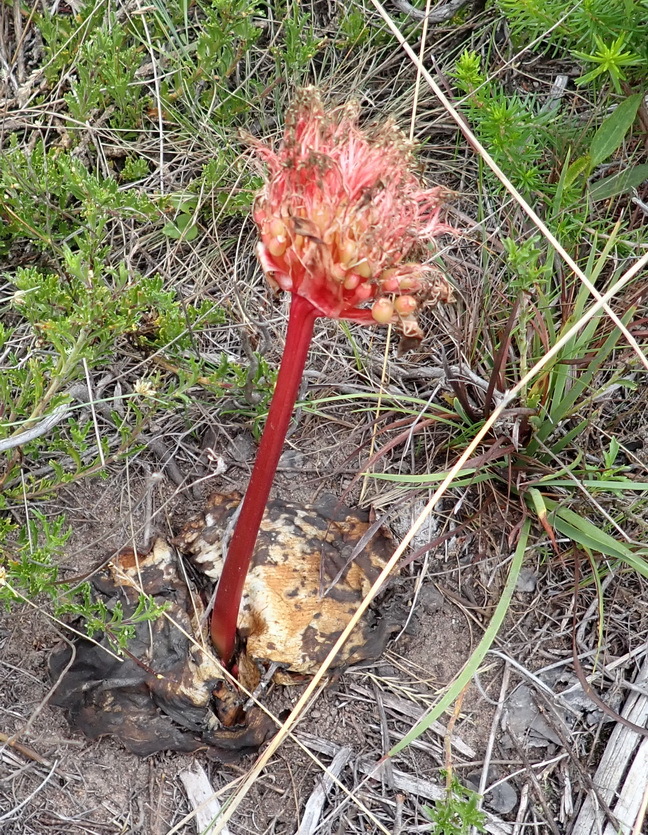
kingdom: Plantae
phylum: Tracheophyta
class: Liliopsida
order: Asparagales
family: Amaryllidaceae
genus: Haemanthus
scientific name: Haemanthus sanguineus
